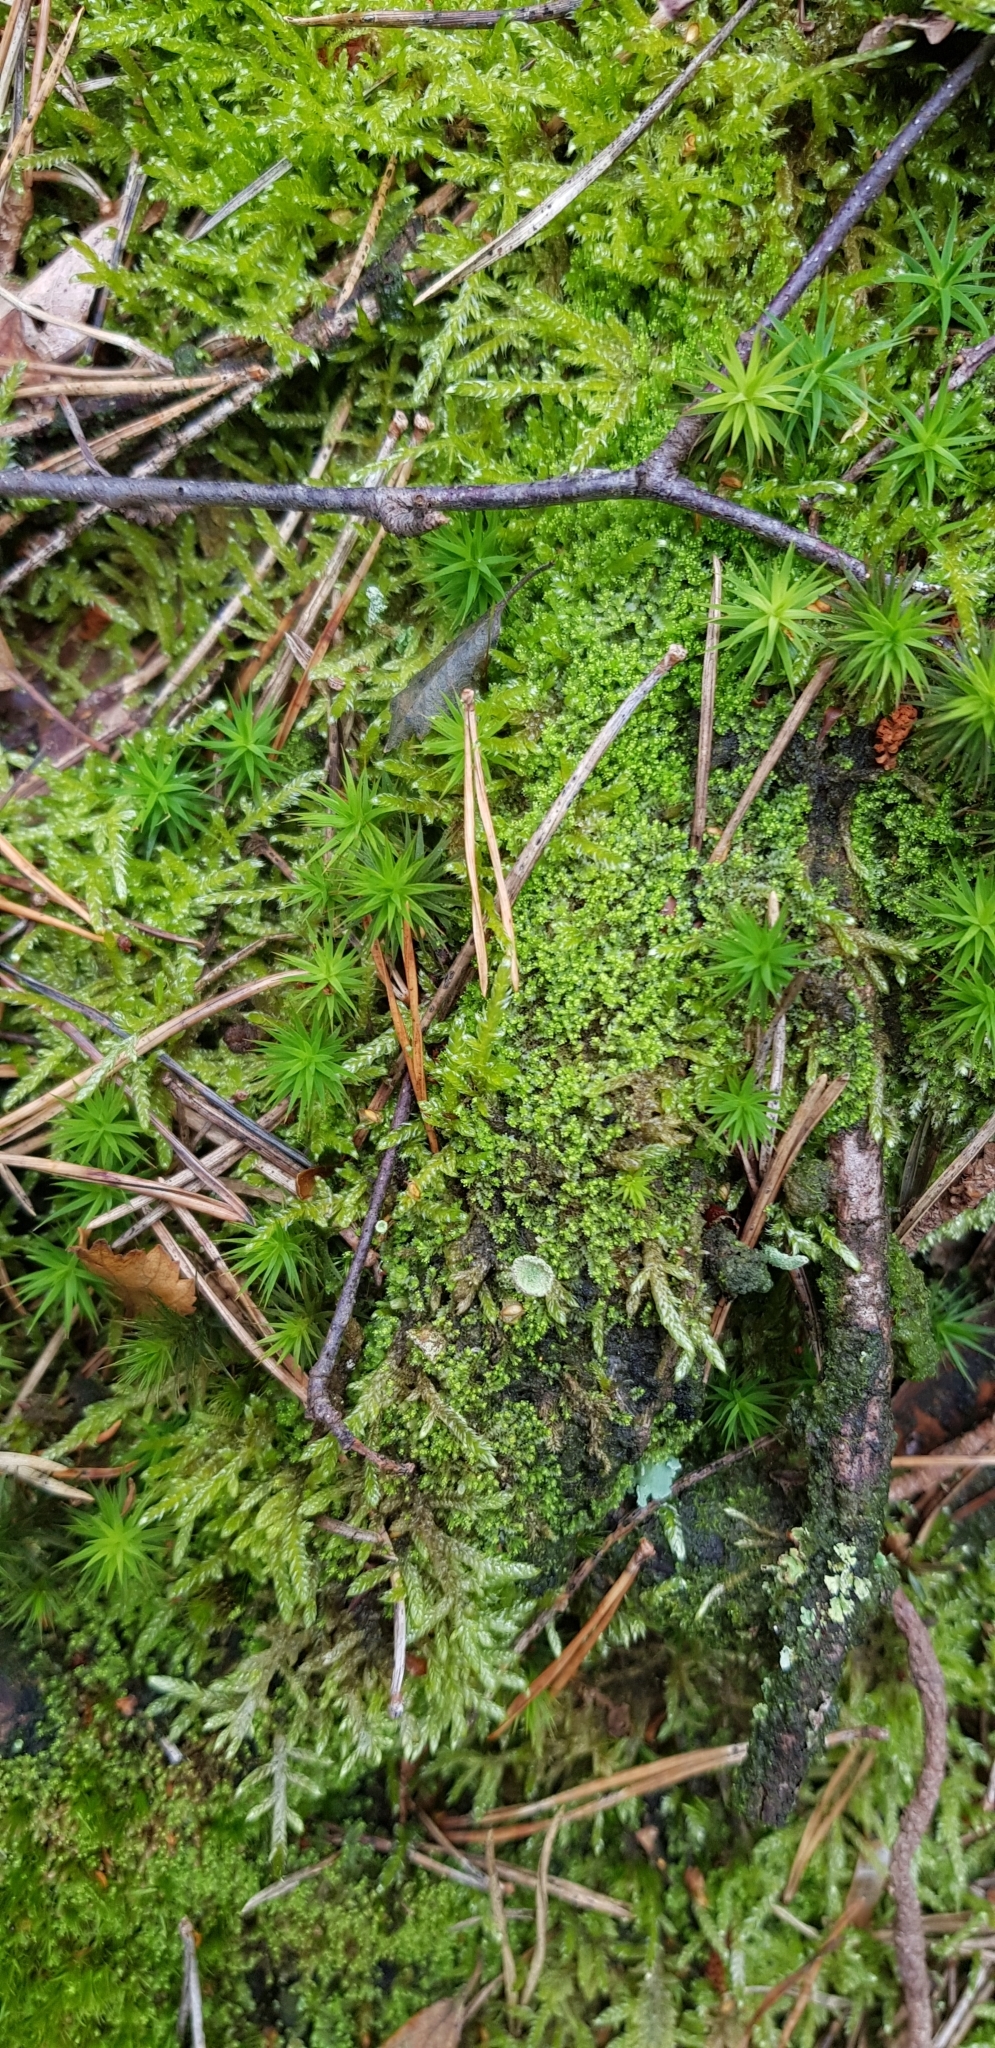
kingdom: Plantae
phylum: Marchantiophyta
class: Jungermanniopsida
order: Jungermanniales
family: Lophoziaceae
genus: Lophozia
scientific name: Lophozia ventricosa
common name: Tumid notchwort
